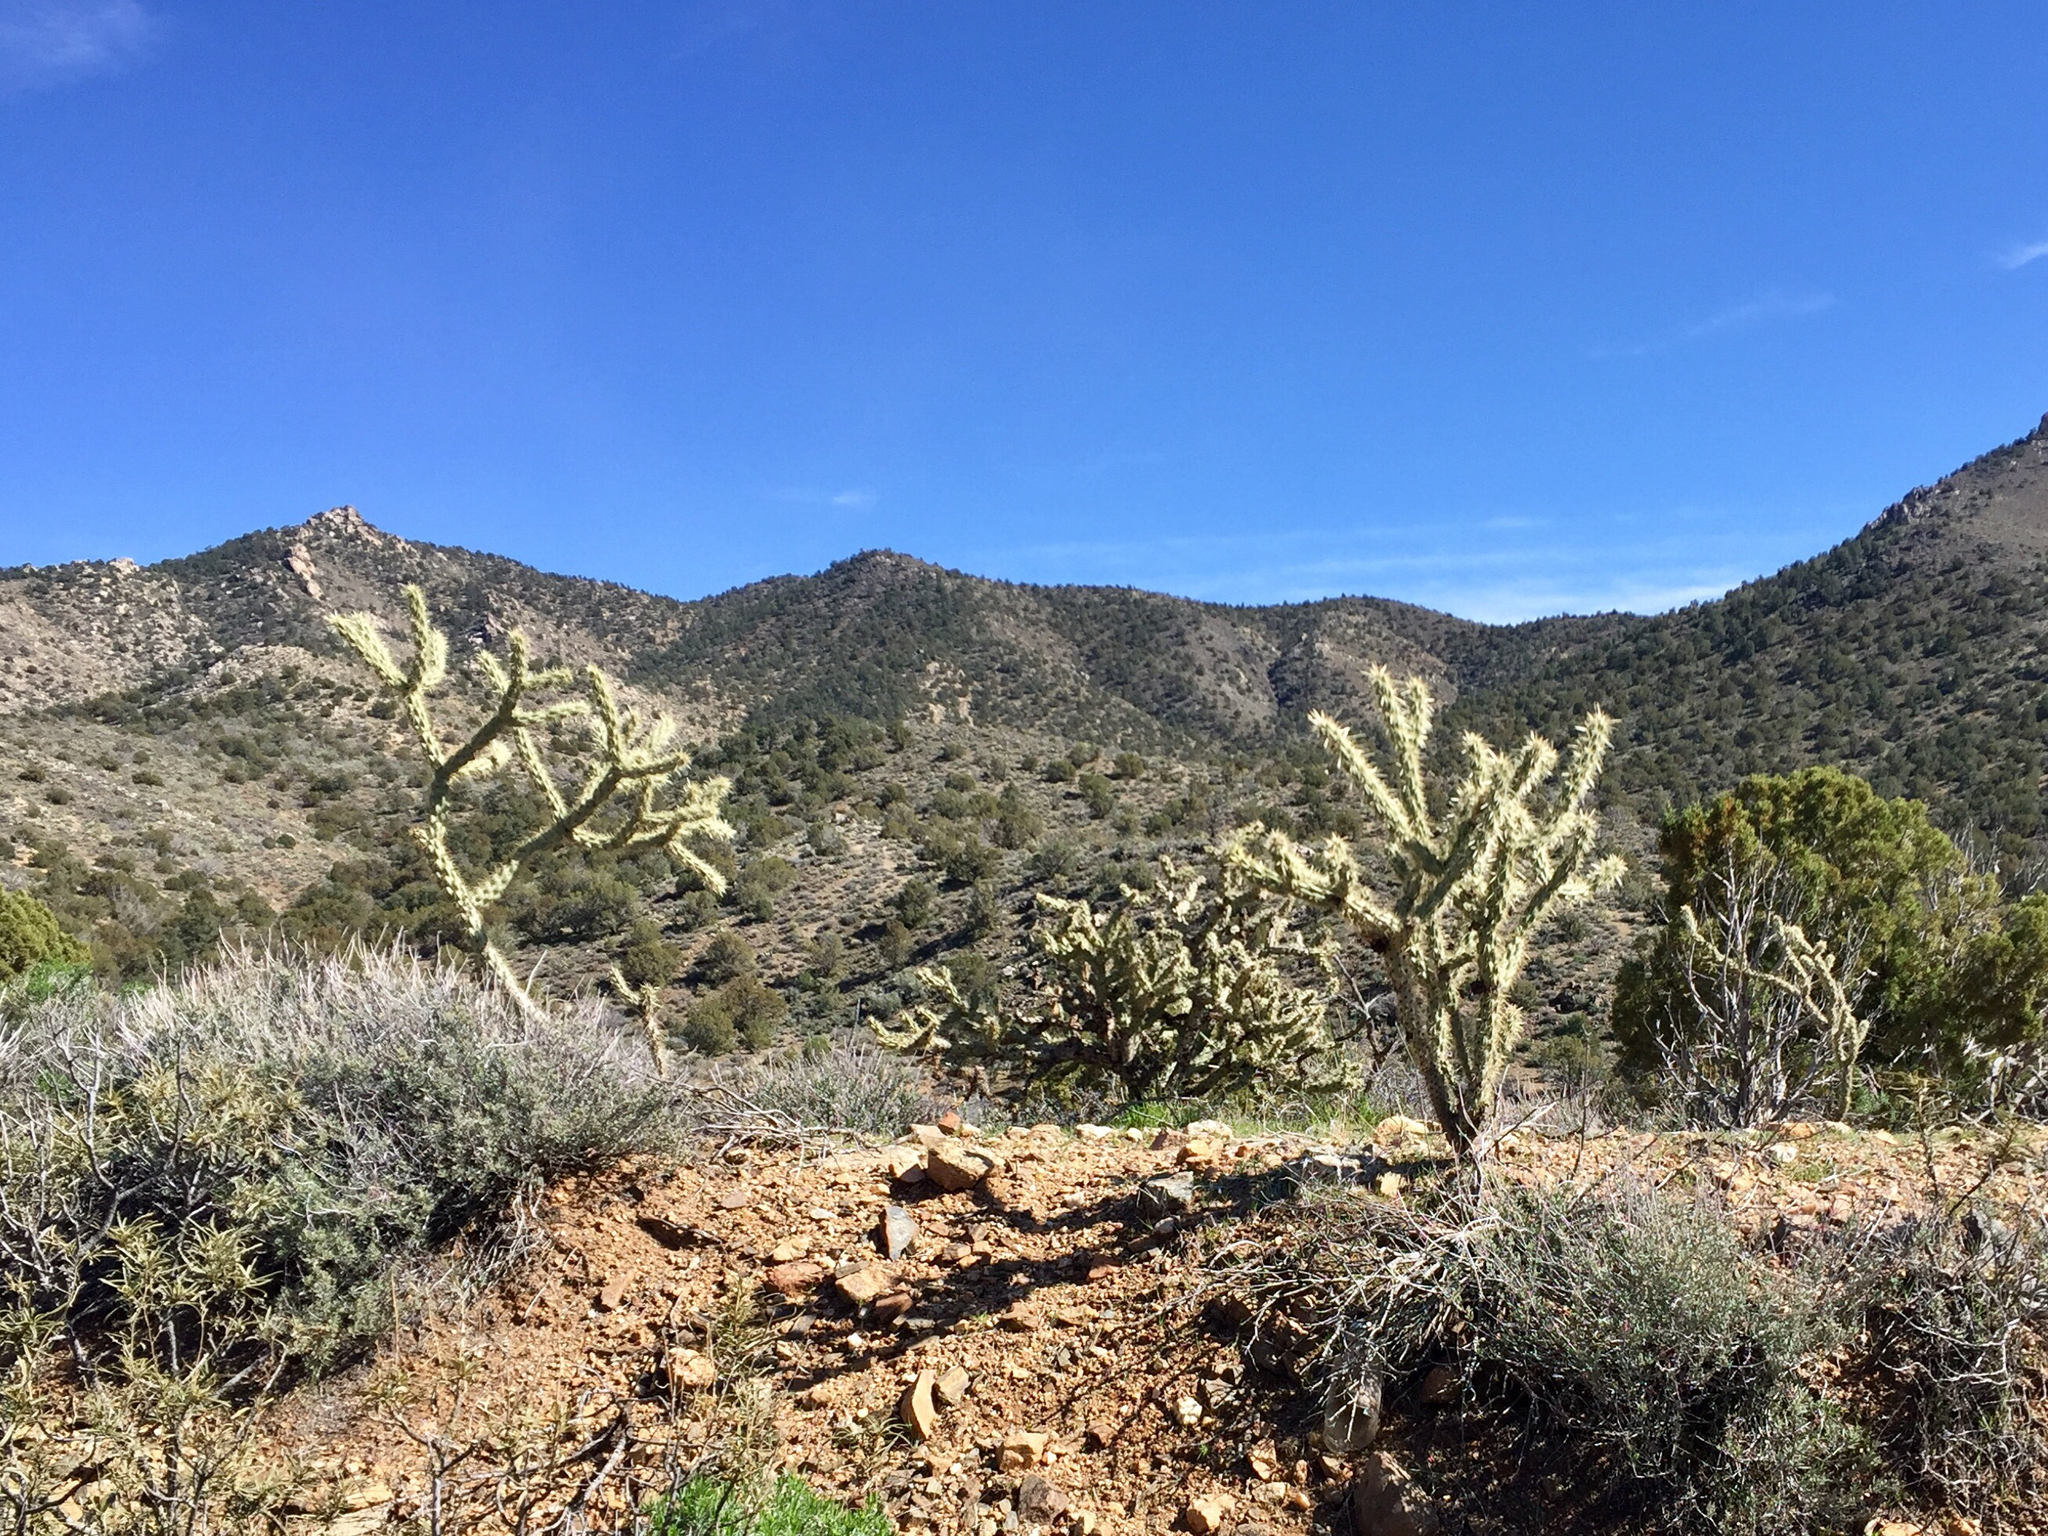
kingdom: Plantae
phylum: Tracheophyta
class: Magnoliopsida
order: Caryophyllales
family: Cactaceae
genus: Cylindropuntia
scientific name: Cylindropuntia acanthocarpa
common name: Buckhorn cholla
